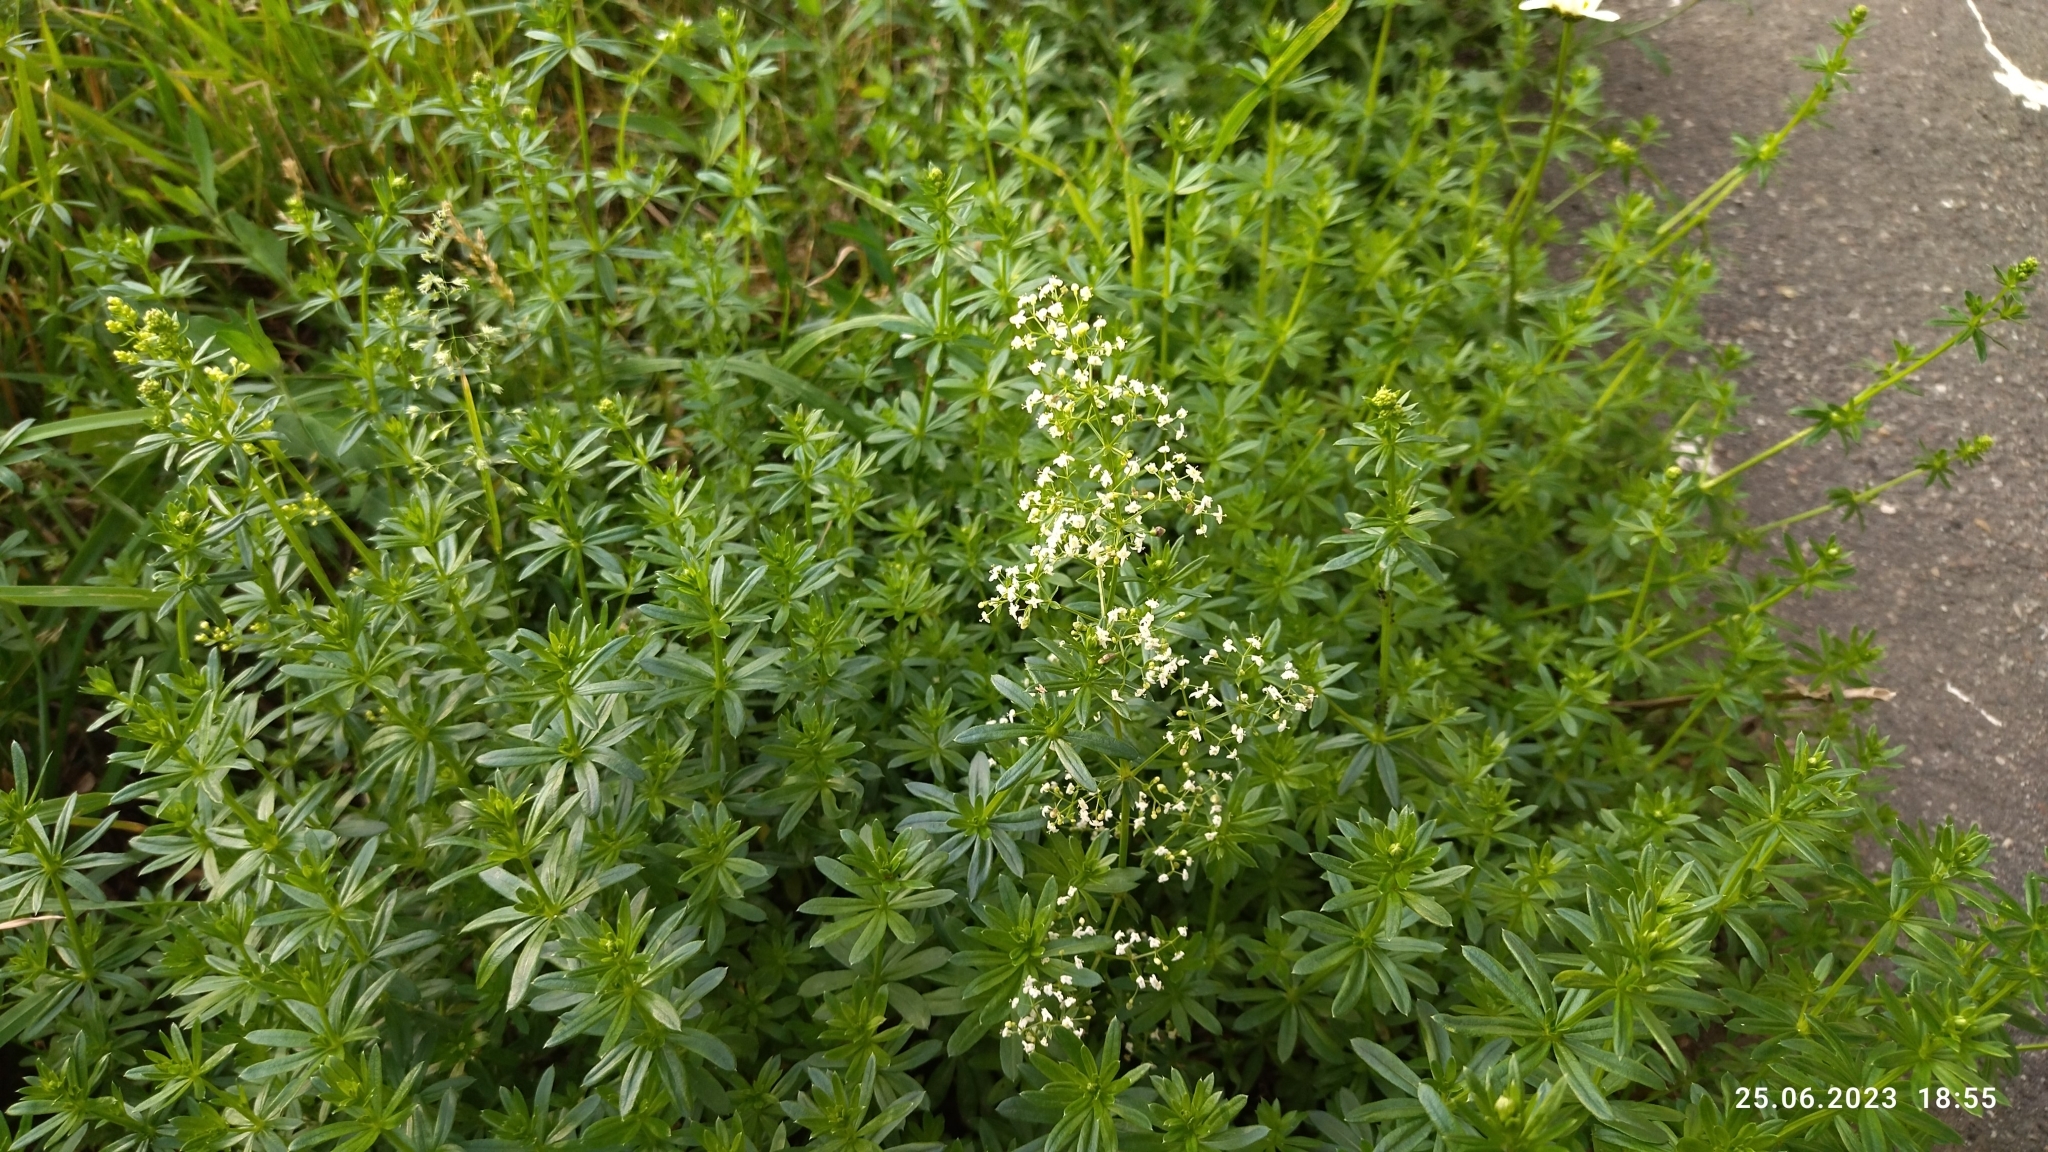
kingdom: Plantae
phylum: Tracheophyta
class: Magnoliopsida
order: Gentianales
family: Rubiaceae
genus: Galium
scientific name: Galium mollugo
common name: Hedge bedstraw
